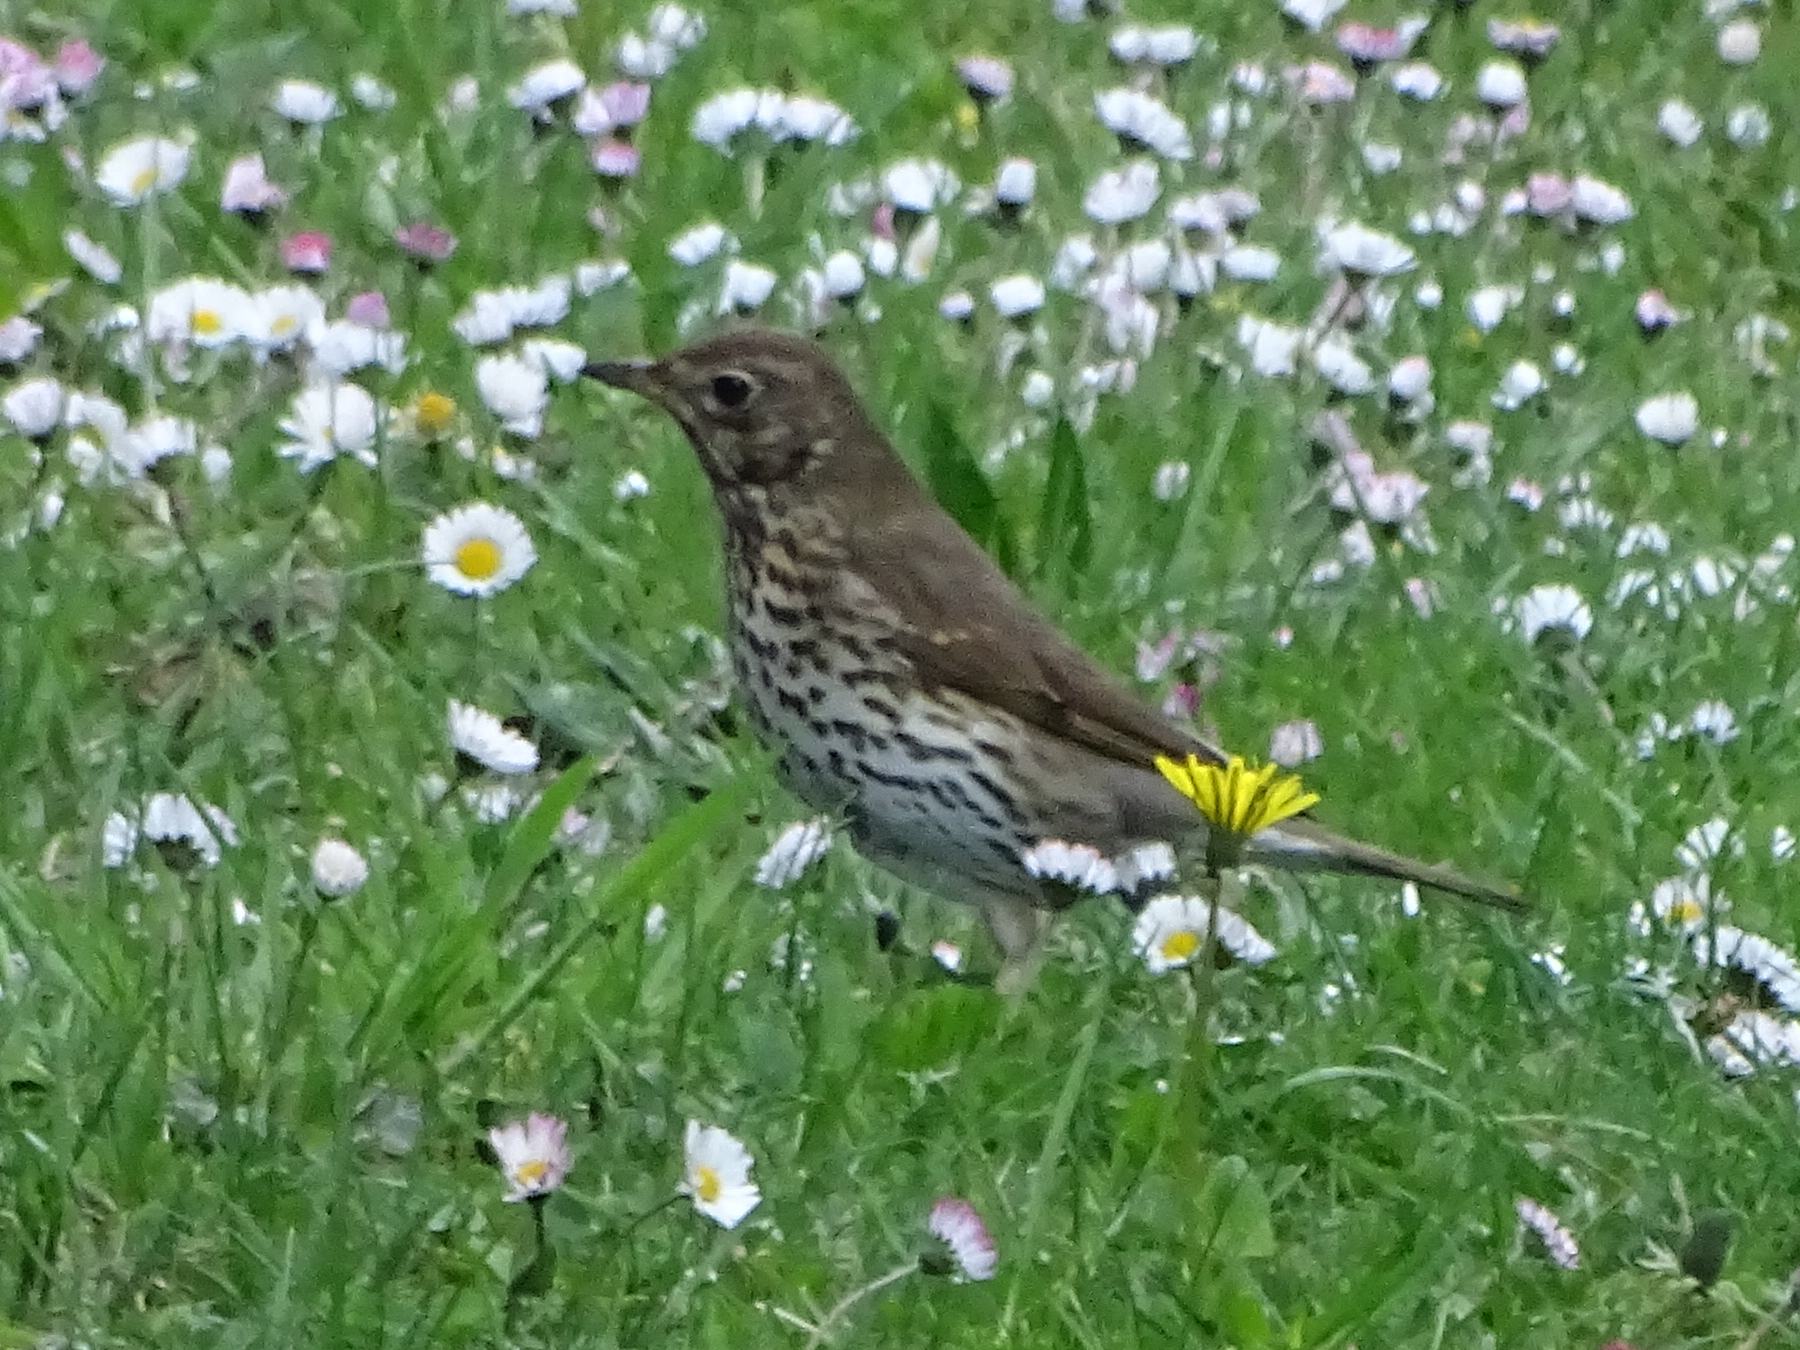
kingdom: Animalia
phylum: Chordata
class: Aves
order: Passeriformes
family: Turdidae
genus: Turdus
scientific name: Turdus philomelos
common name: Song thrush
